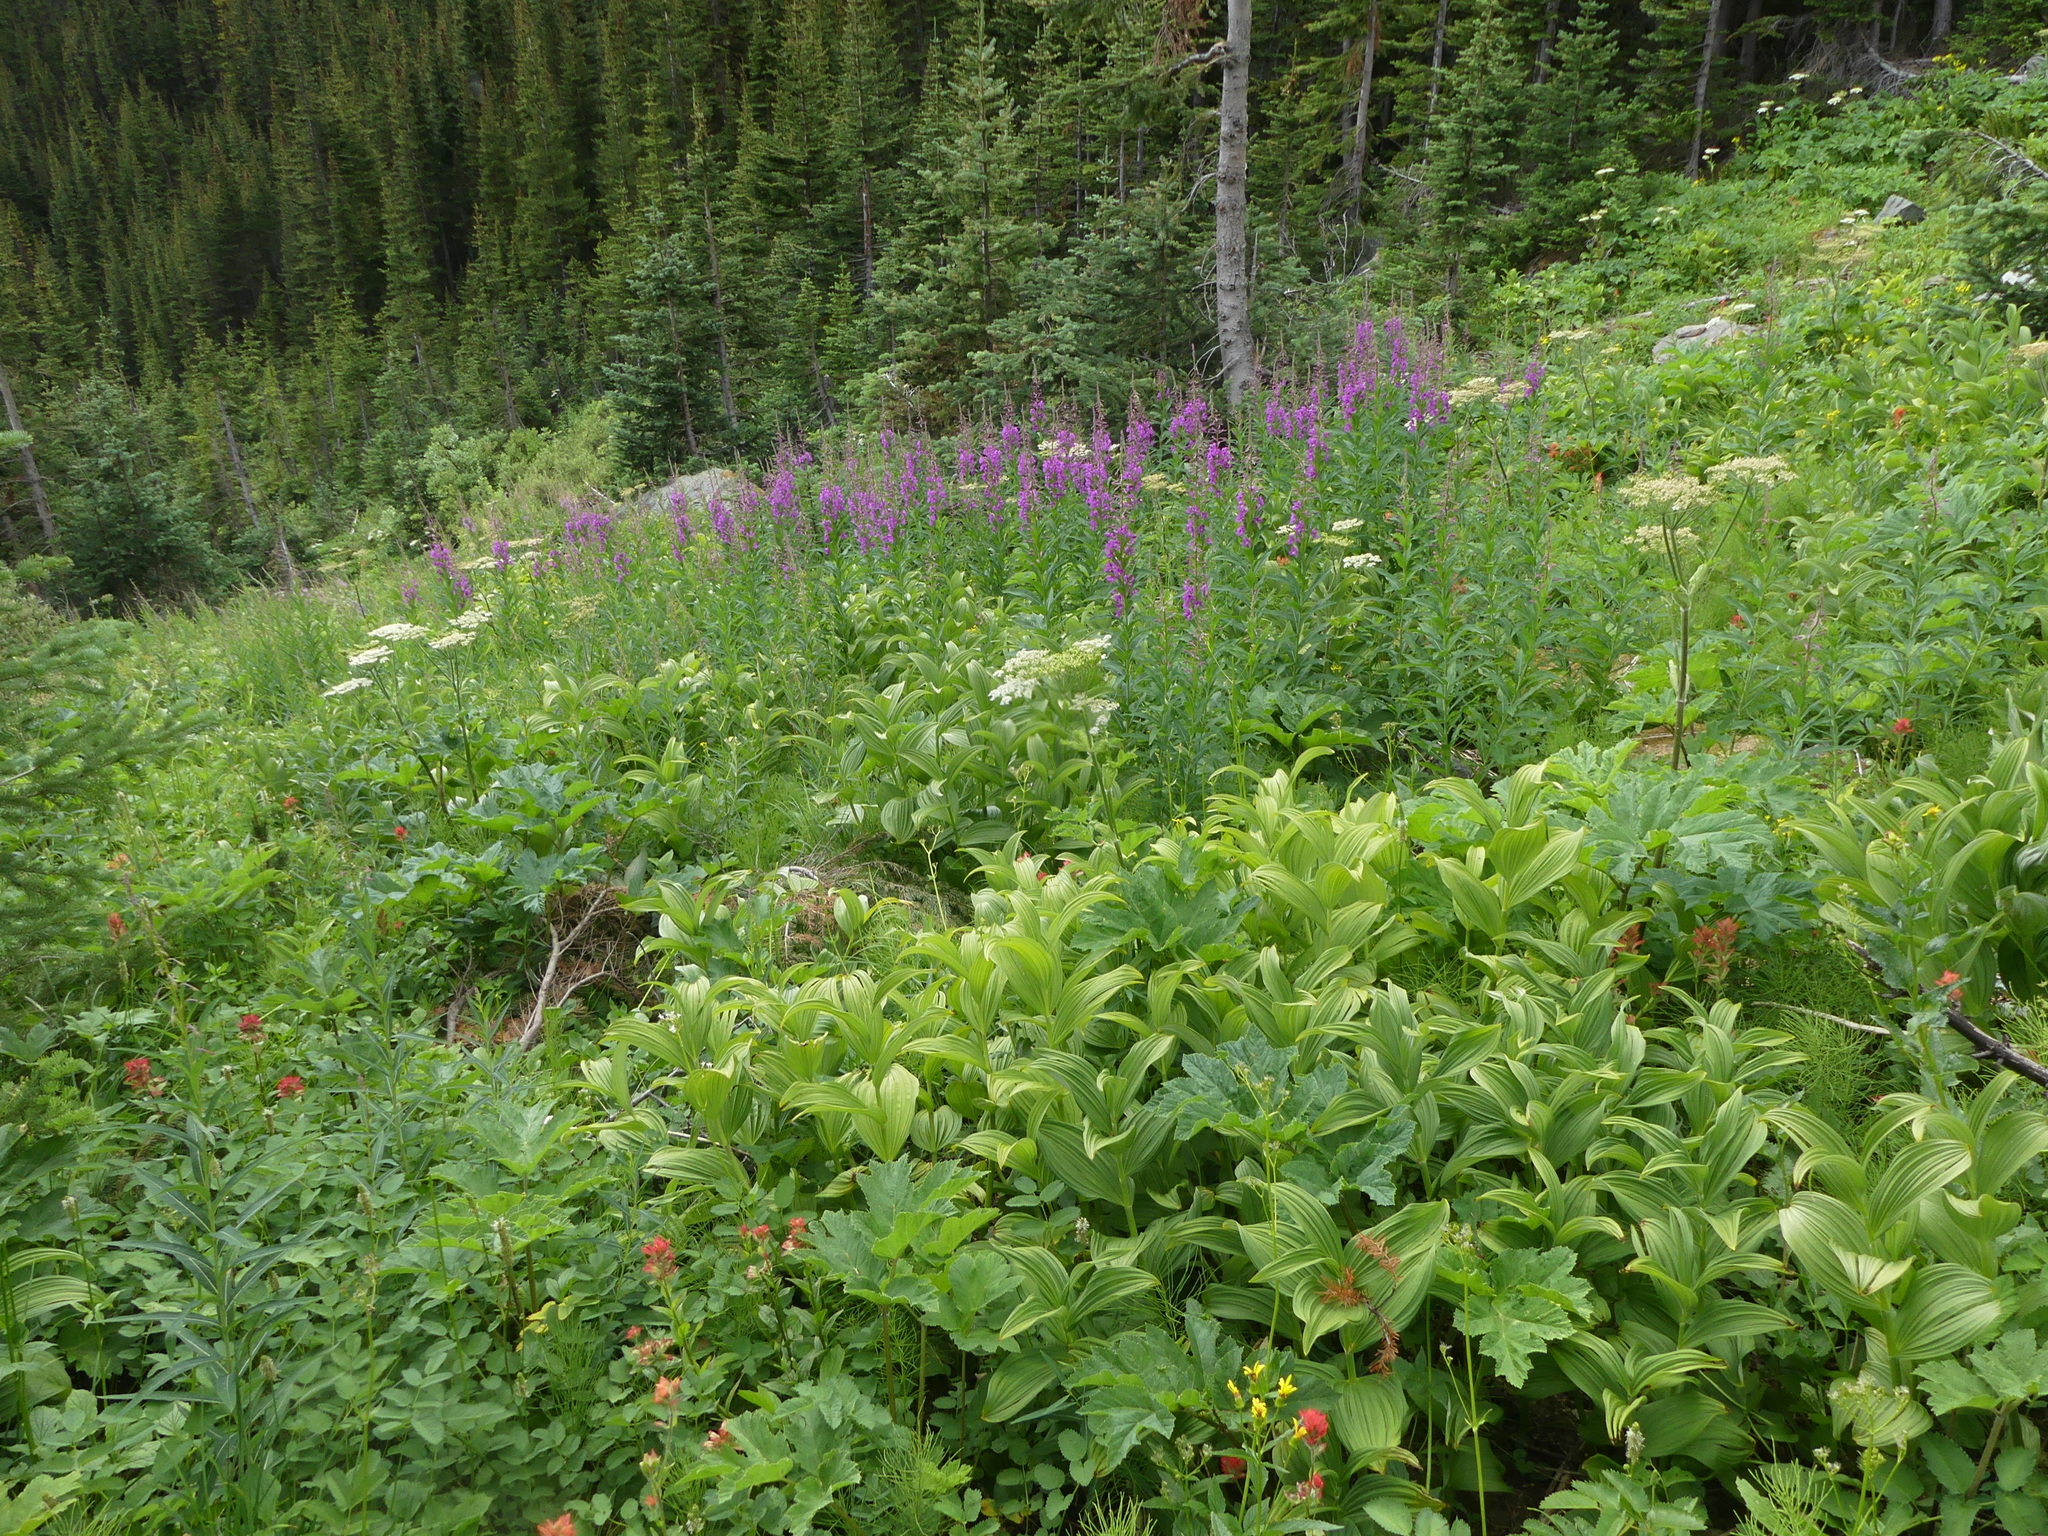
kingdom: Plantae
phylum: Tracheophyta
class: Magnoliopsida
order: Myrtales
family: Onagraceae
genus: Chamaenerion
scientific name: Chamaenerion angustifolium
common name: Fireweed
